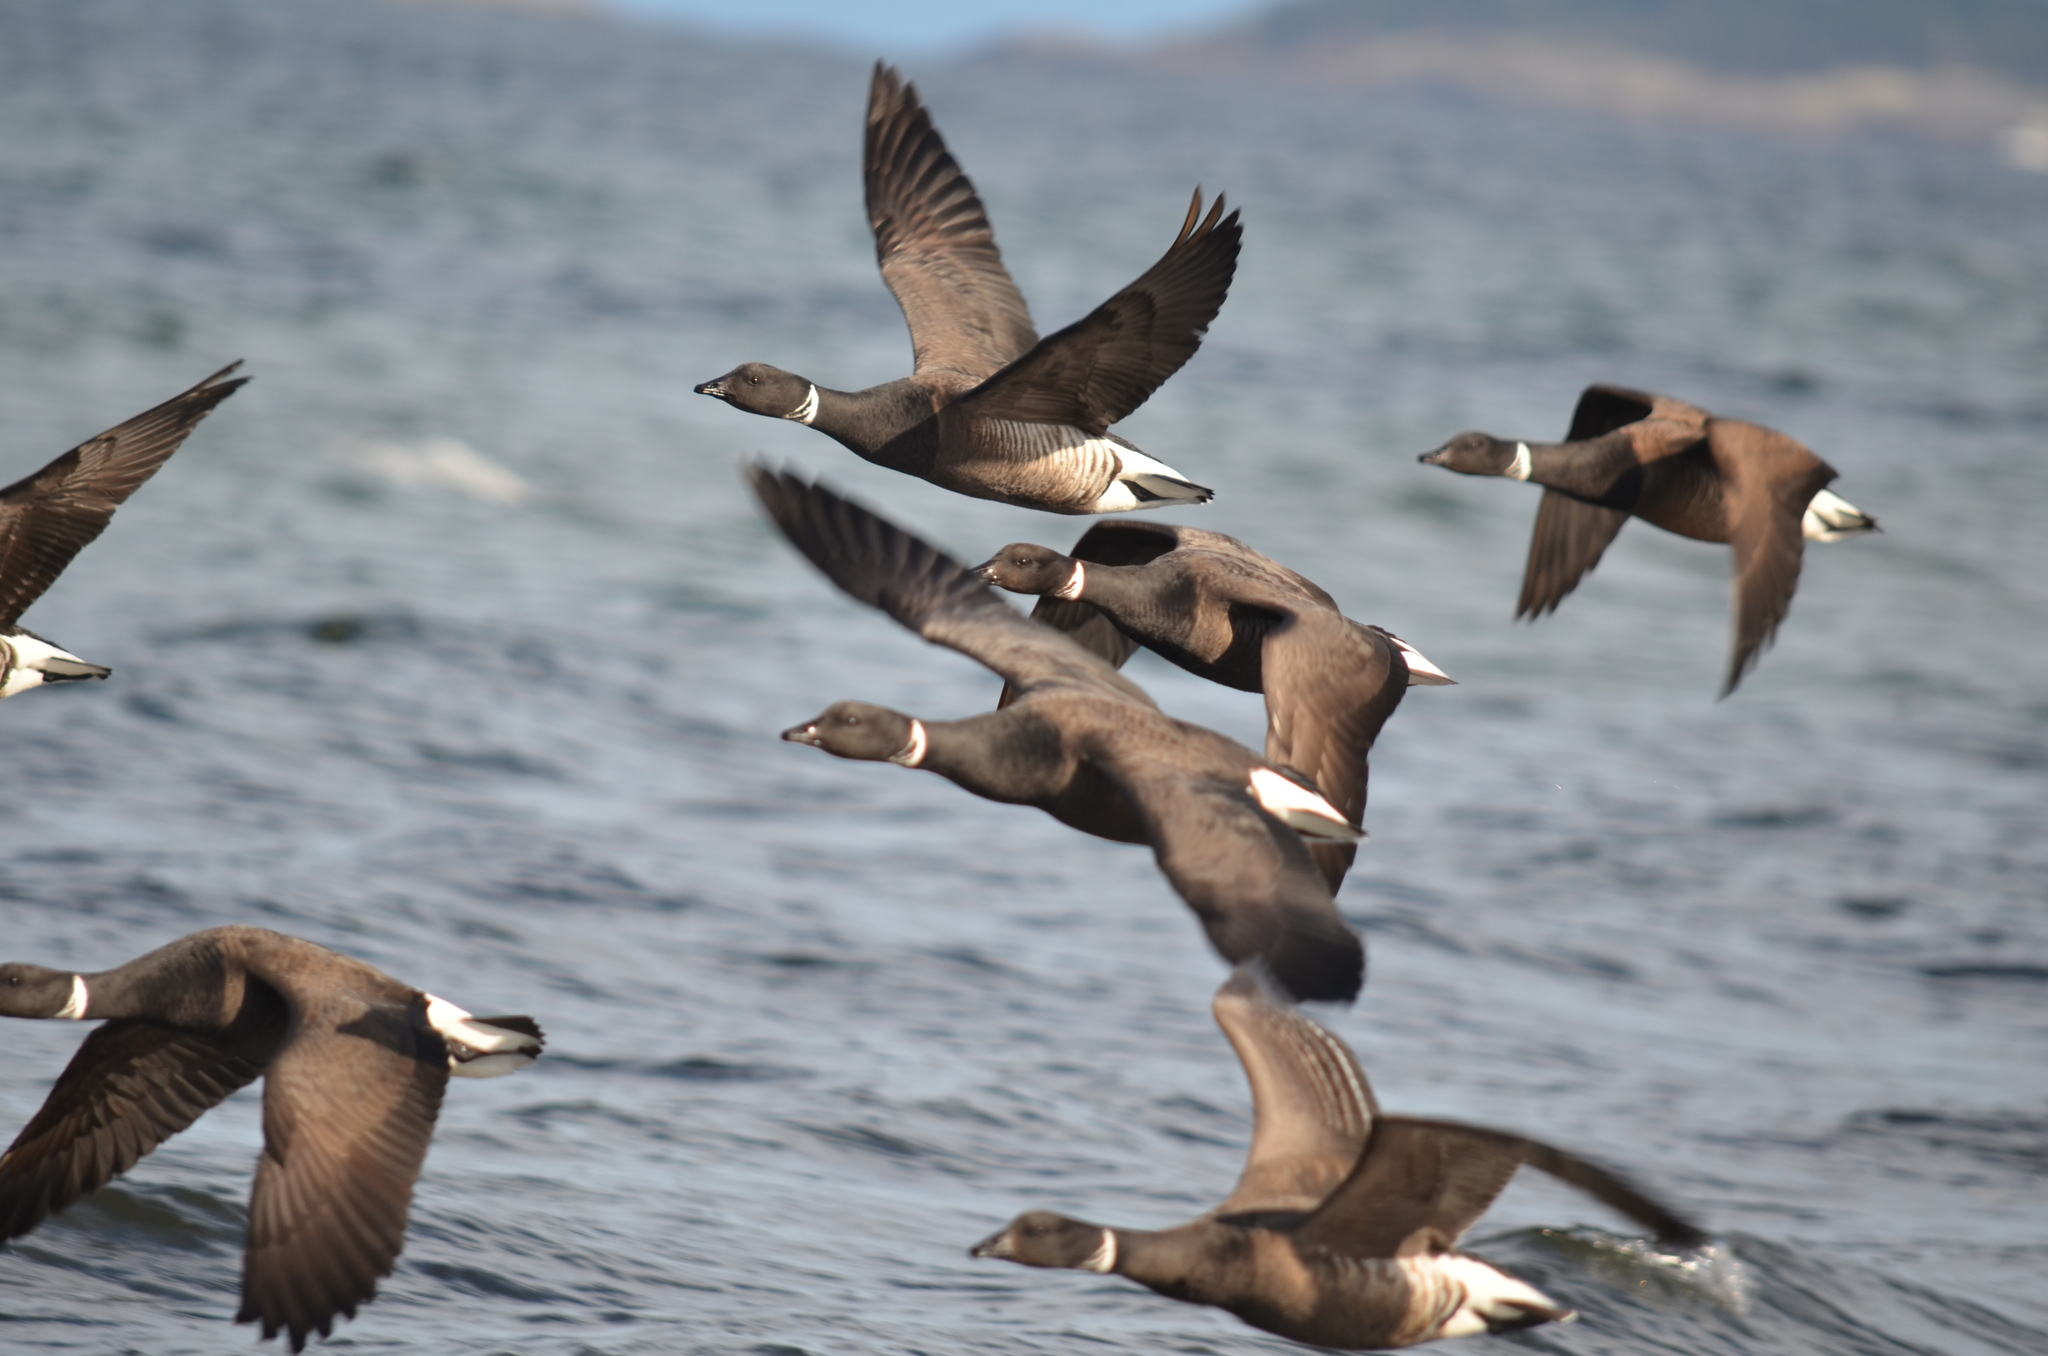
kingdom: Animalia
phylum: Chordata
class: Aves
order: Anseriformes
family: Anatidae
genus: Branta
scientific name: Branta bernicla
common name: Brant goose
